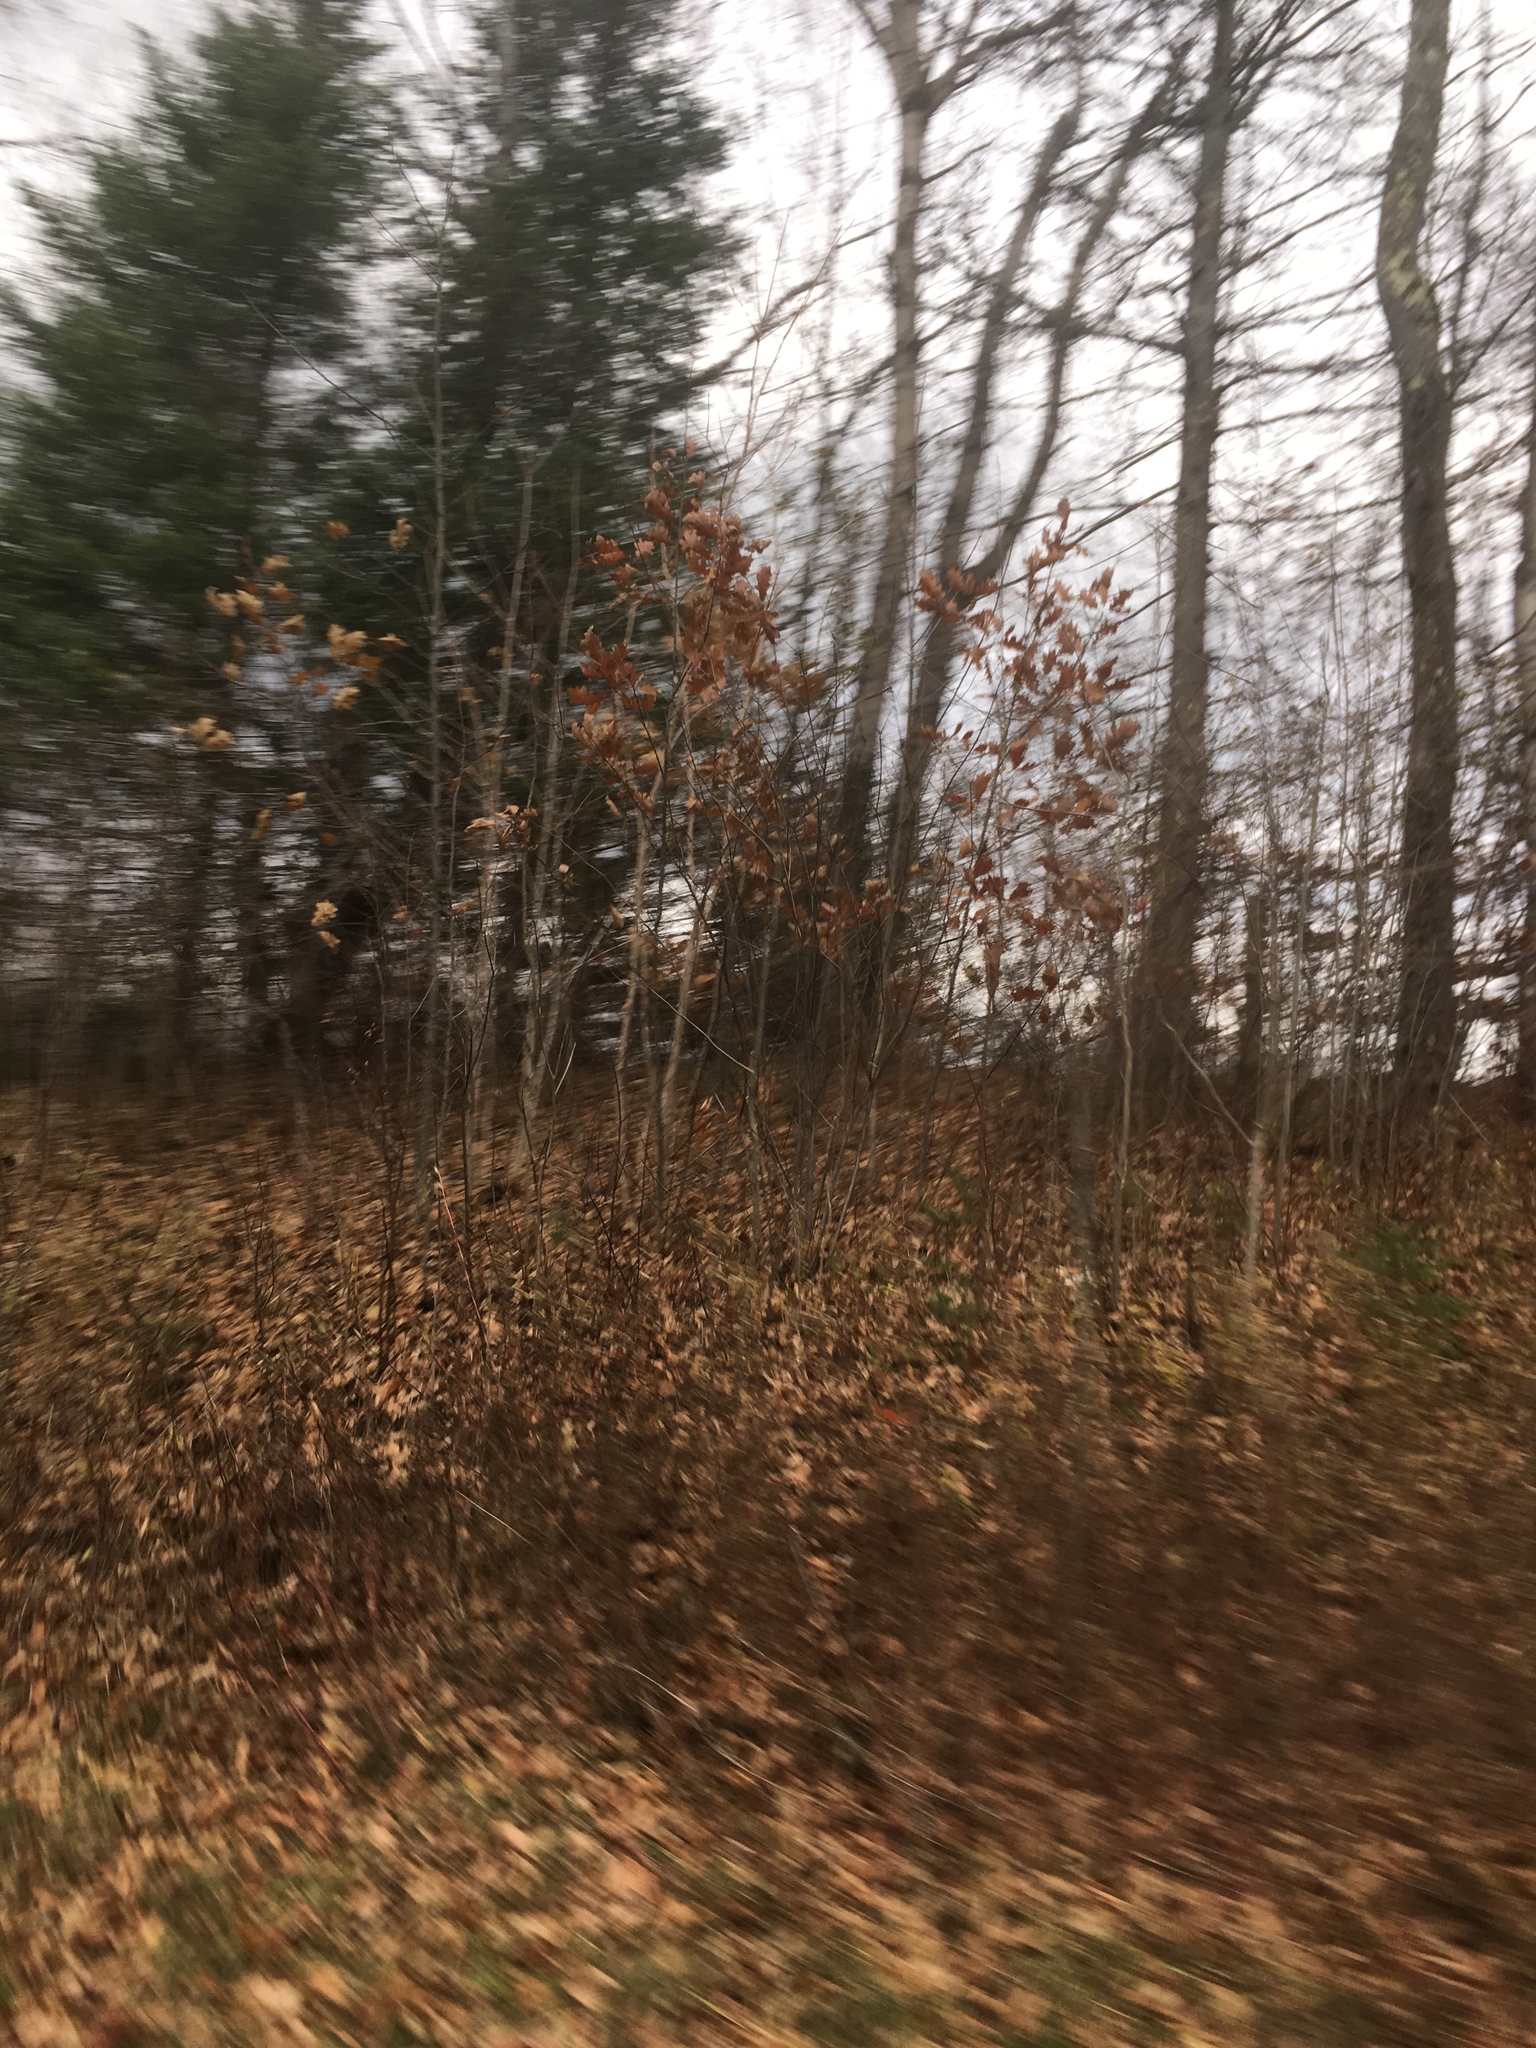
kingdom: Plantae
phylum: Tracheophyta
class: Magnoliopsida
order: Fagales
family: Fagaceae
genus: Quercus
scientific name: Quercus rubra
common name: Red oak
